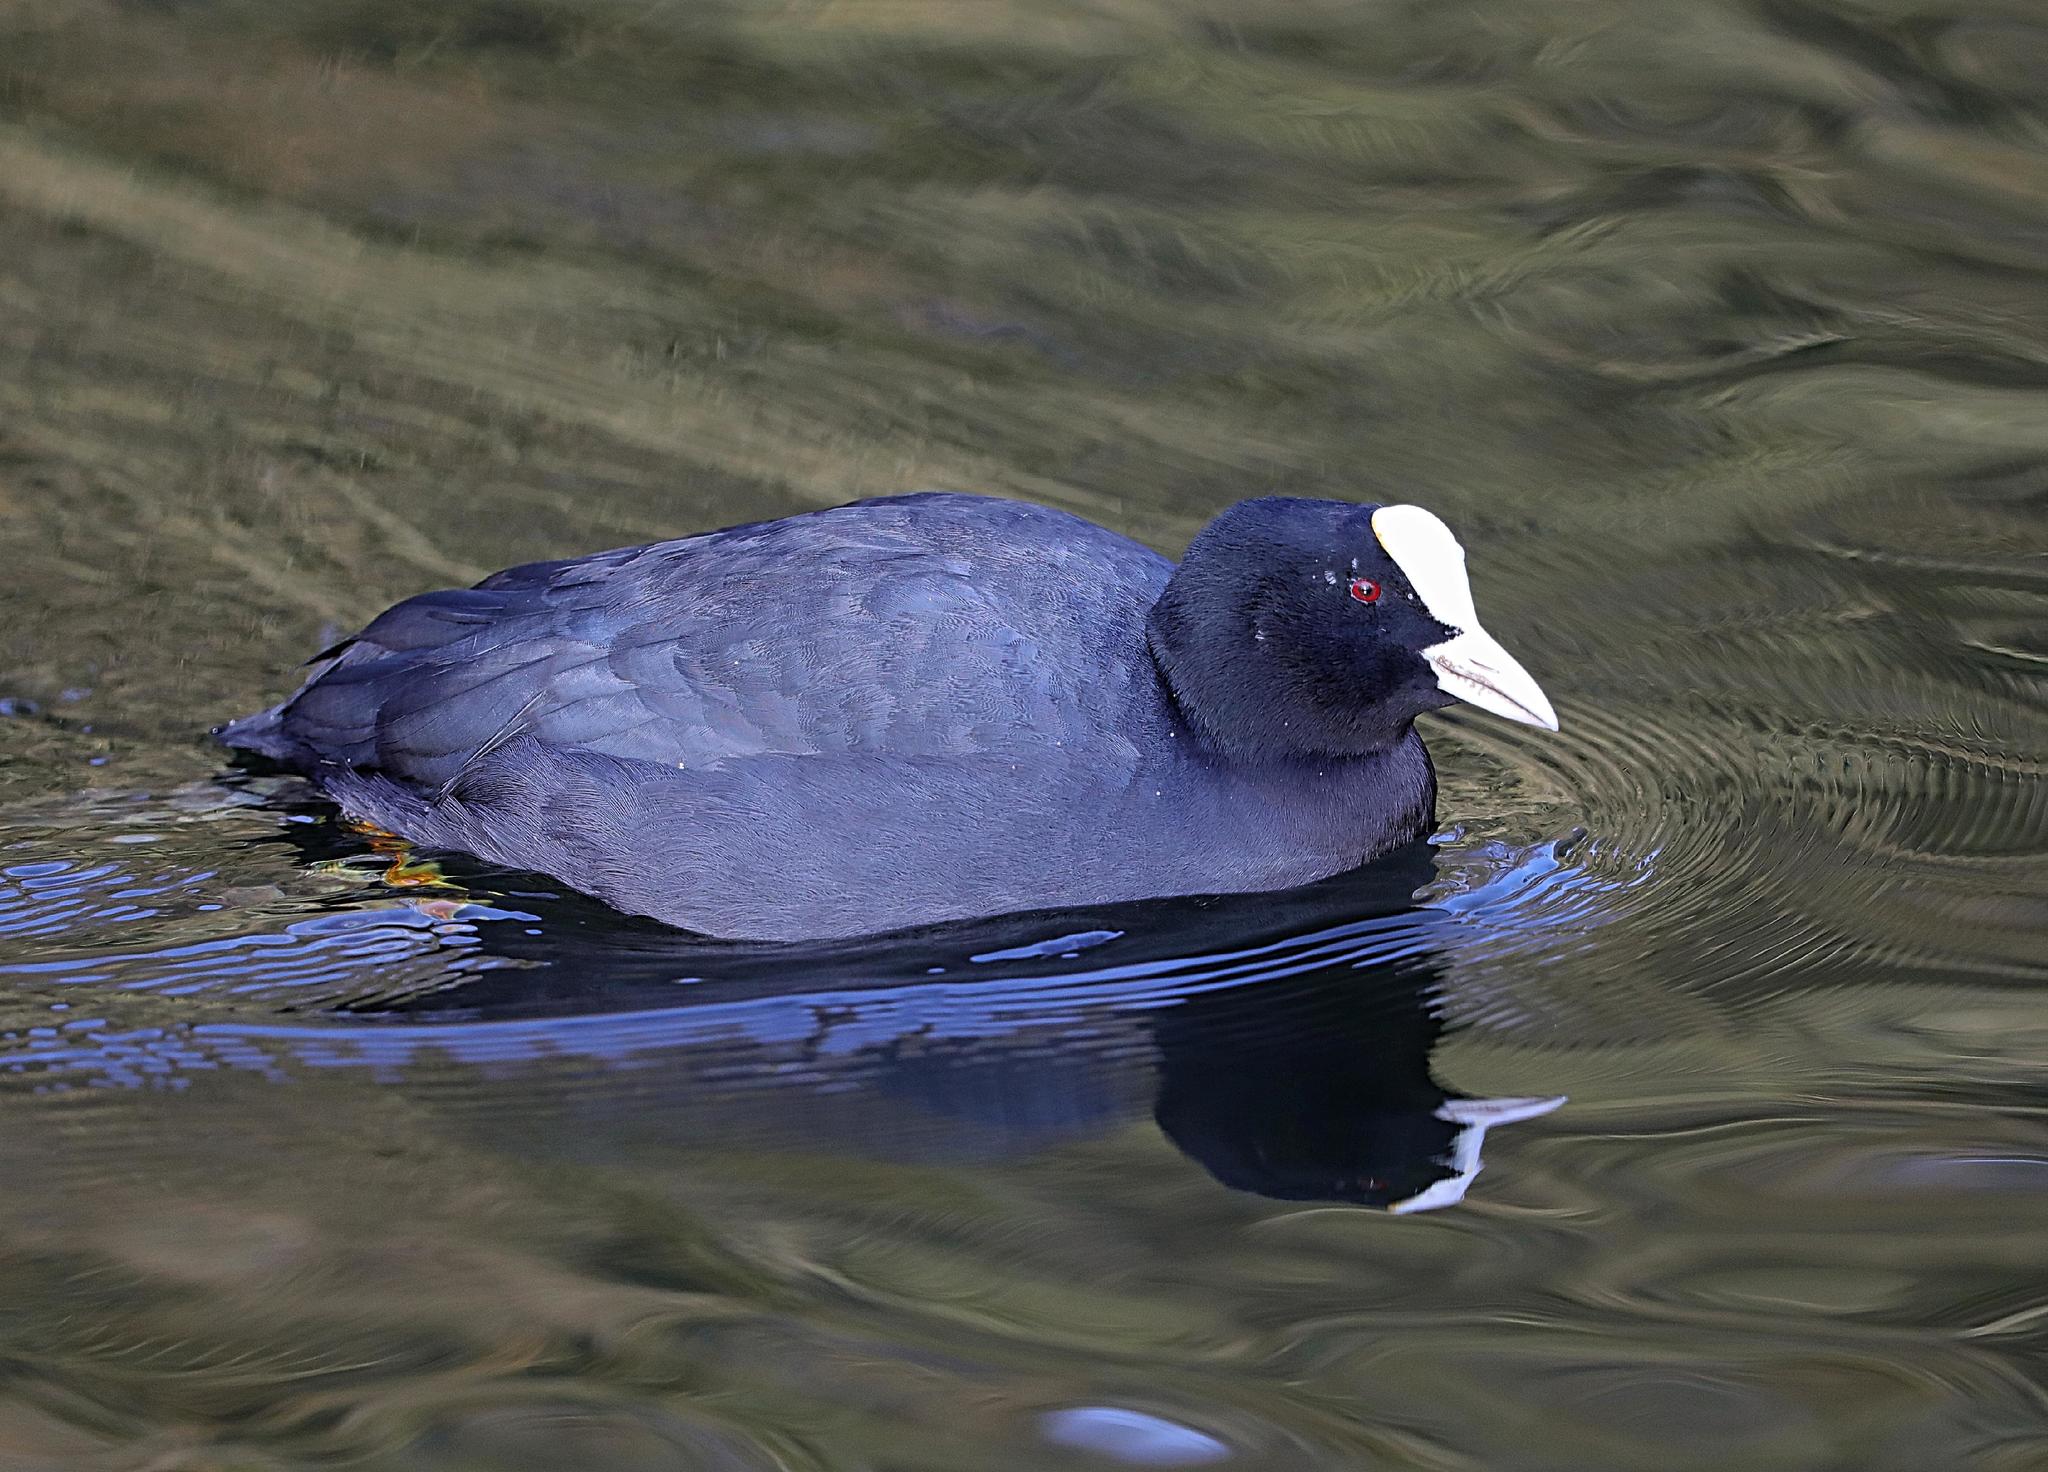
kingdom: Animalia
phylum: Chordata
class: Aves
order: Gruiformes
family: Rallidae
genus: Fulica
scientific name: Fulica atra
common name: Eurasian coot
